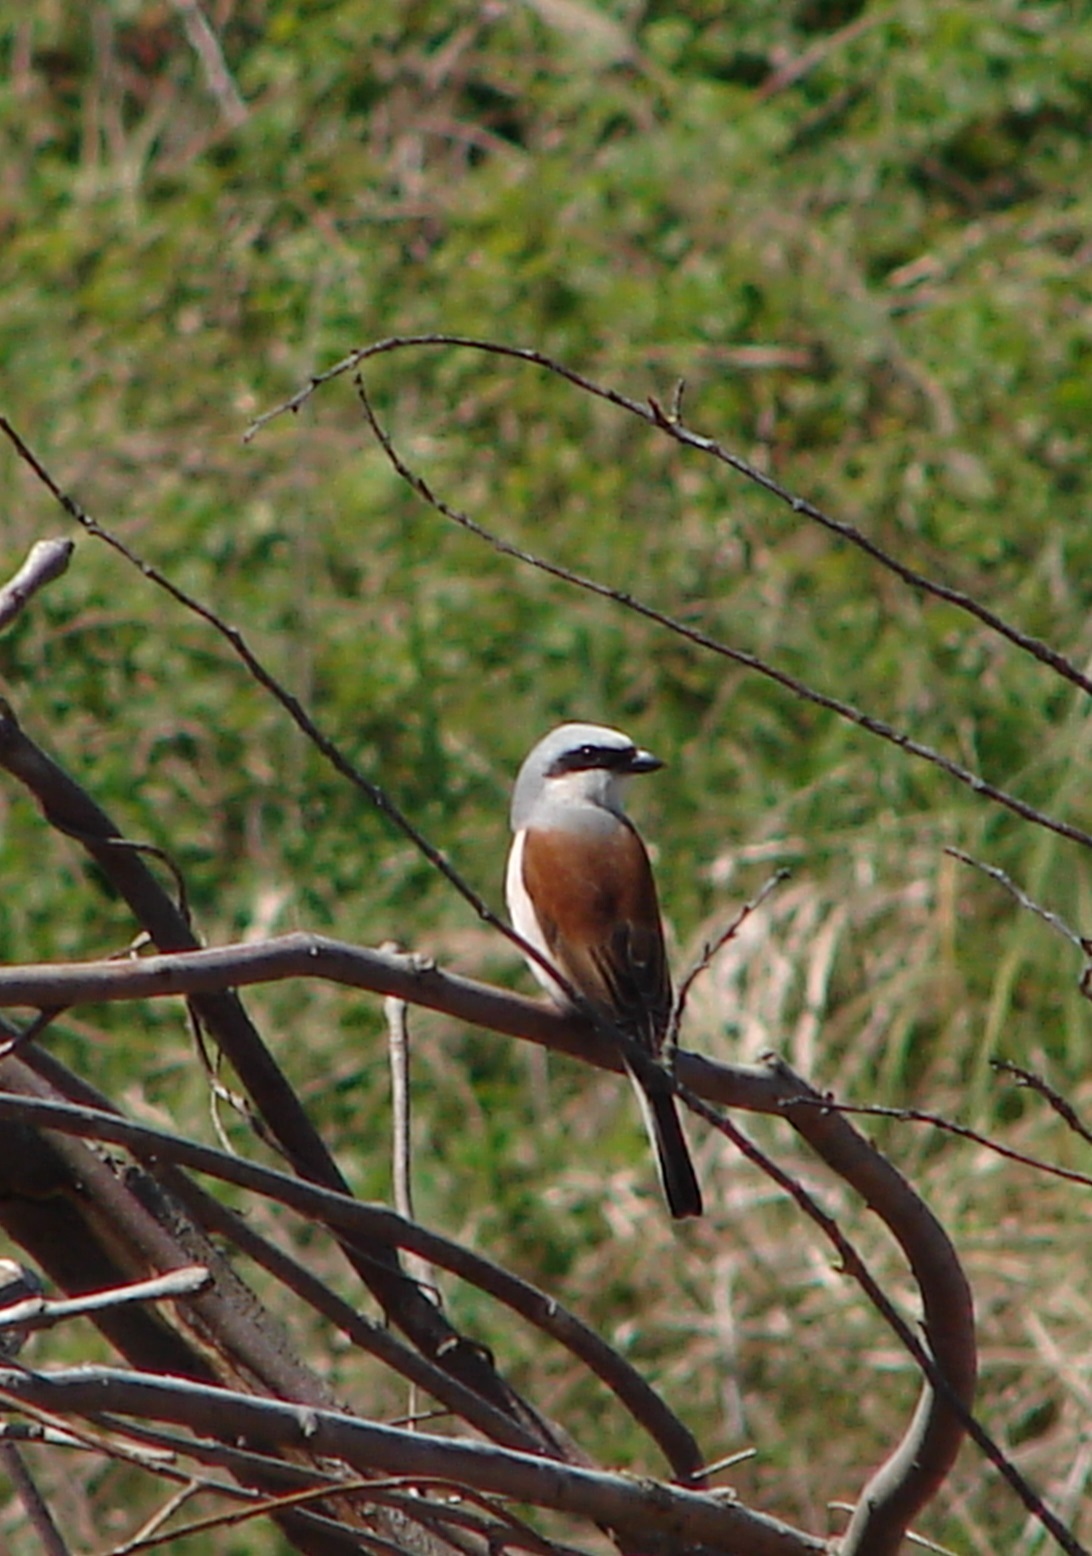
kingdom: Animalia
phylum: Chordata
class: Aves
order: Passeriformes
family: Laniidae
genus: Lanius
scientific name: Lanius collurio
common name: Red-backed shrike
